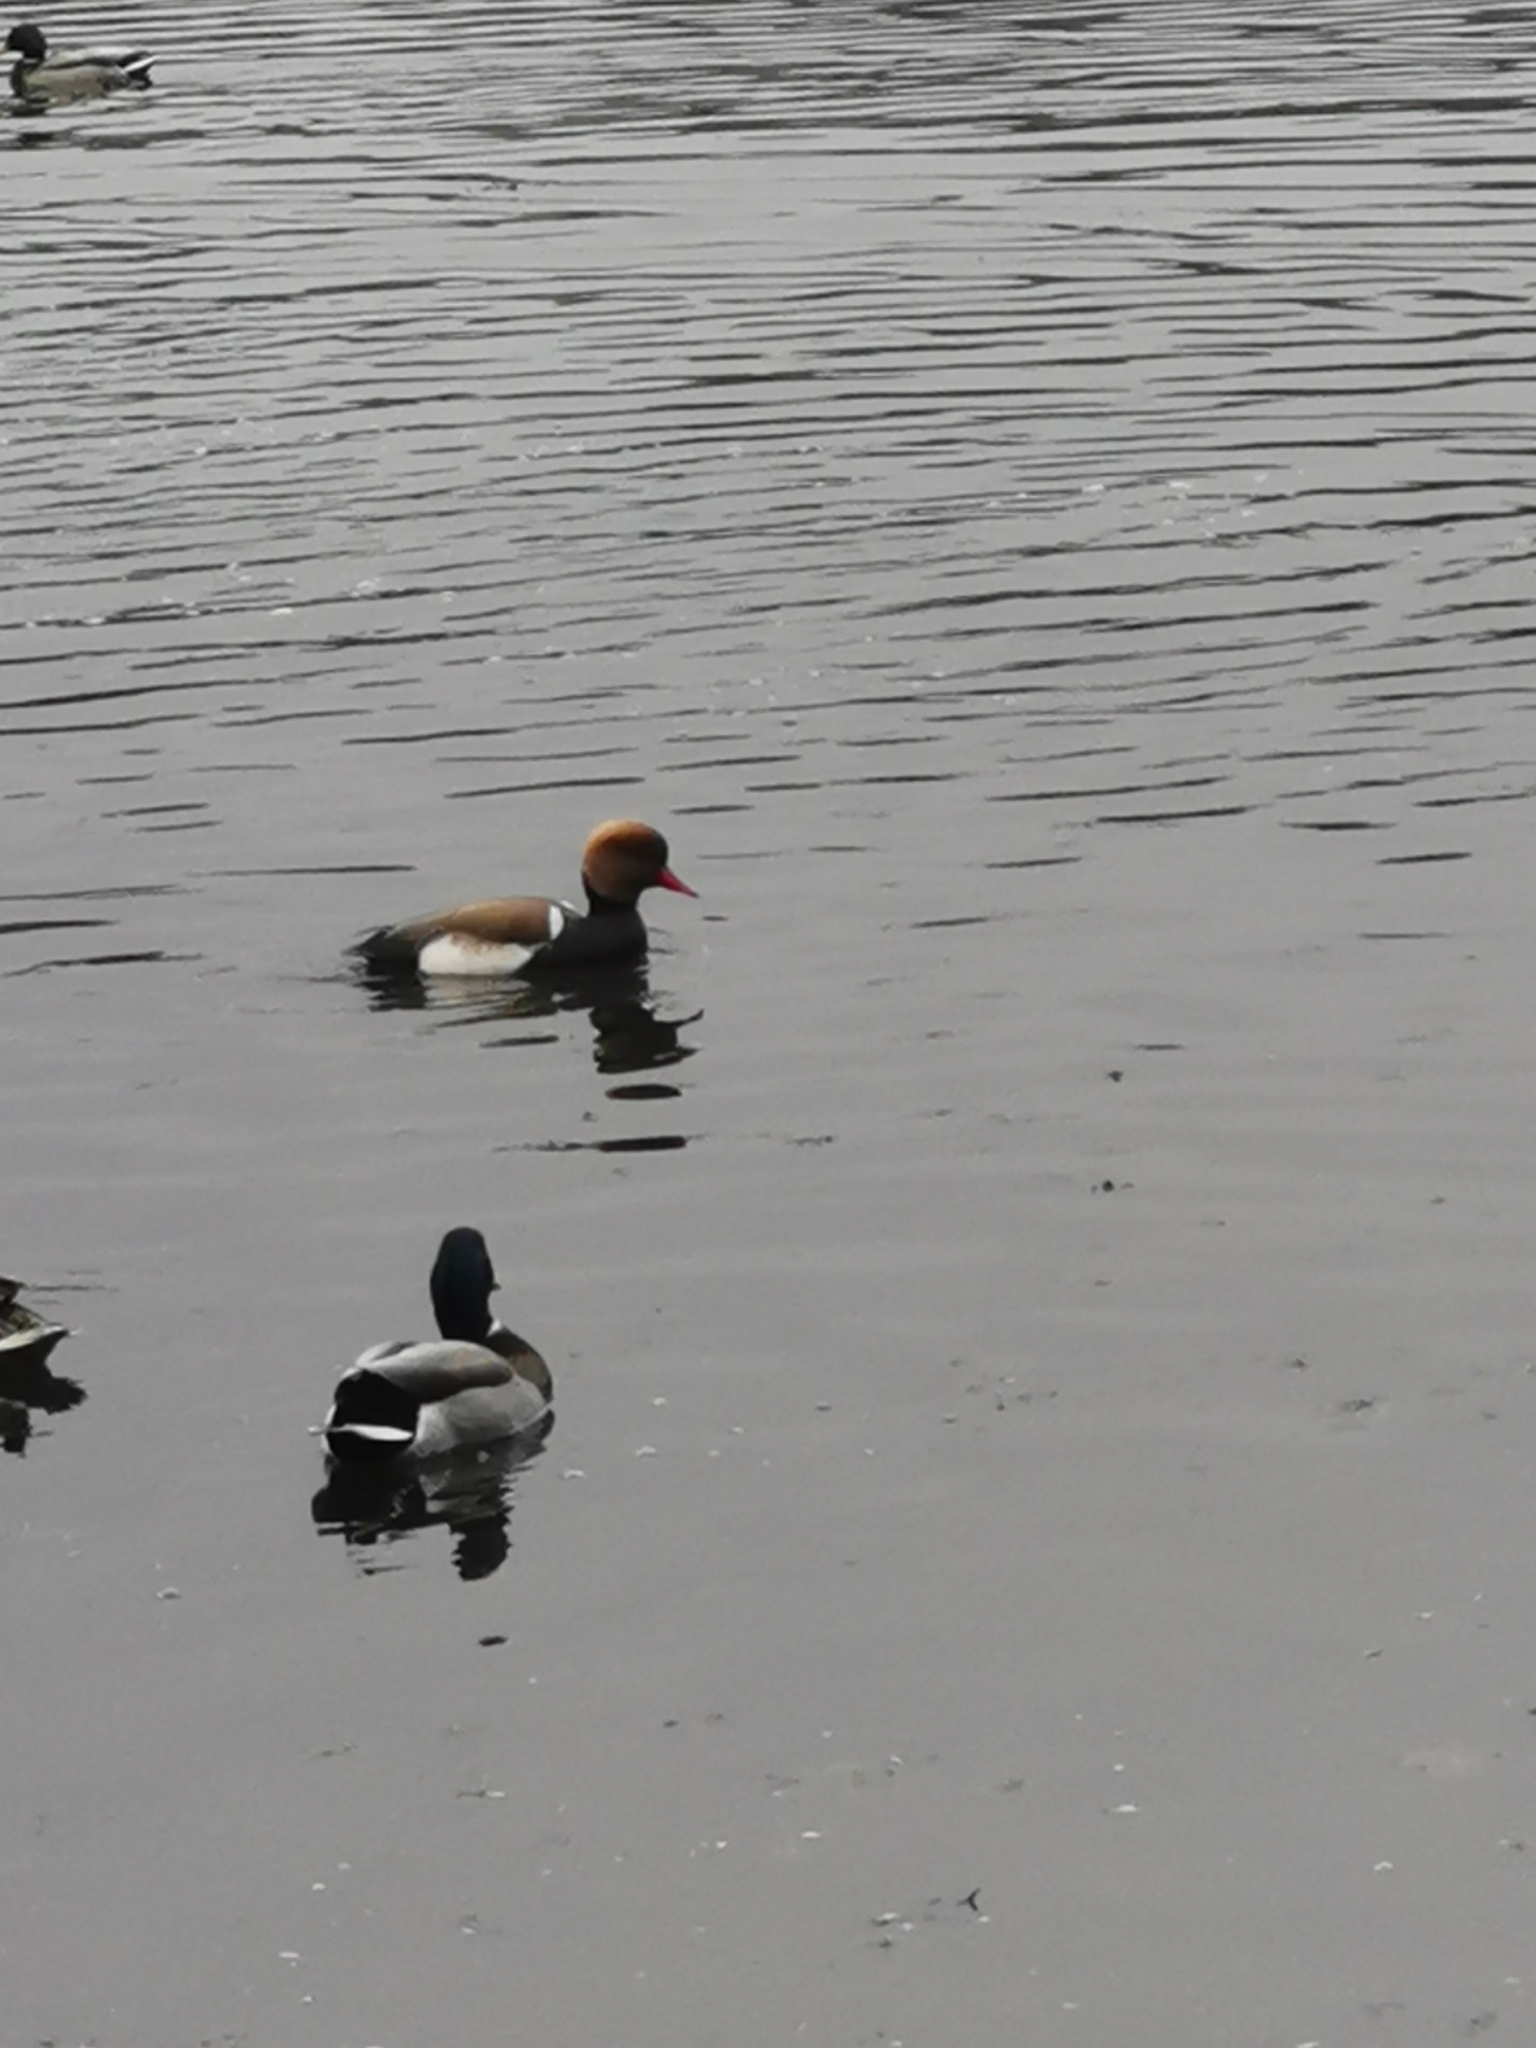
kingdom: Animalia
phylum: Chordata
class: Aves
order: Anseriformes
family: Anatidae
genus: Netta
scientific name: Netta rufina
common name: Red-crested pochard
